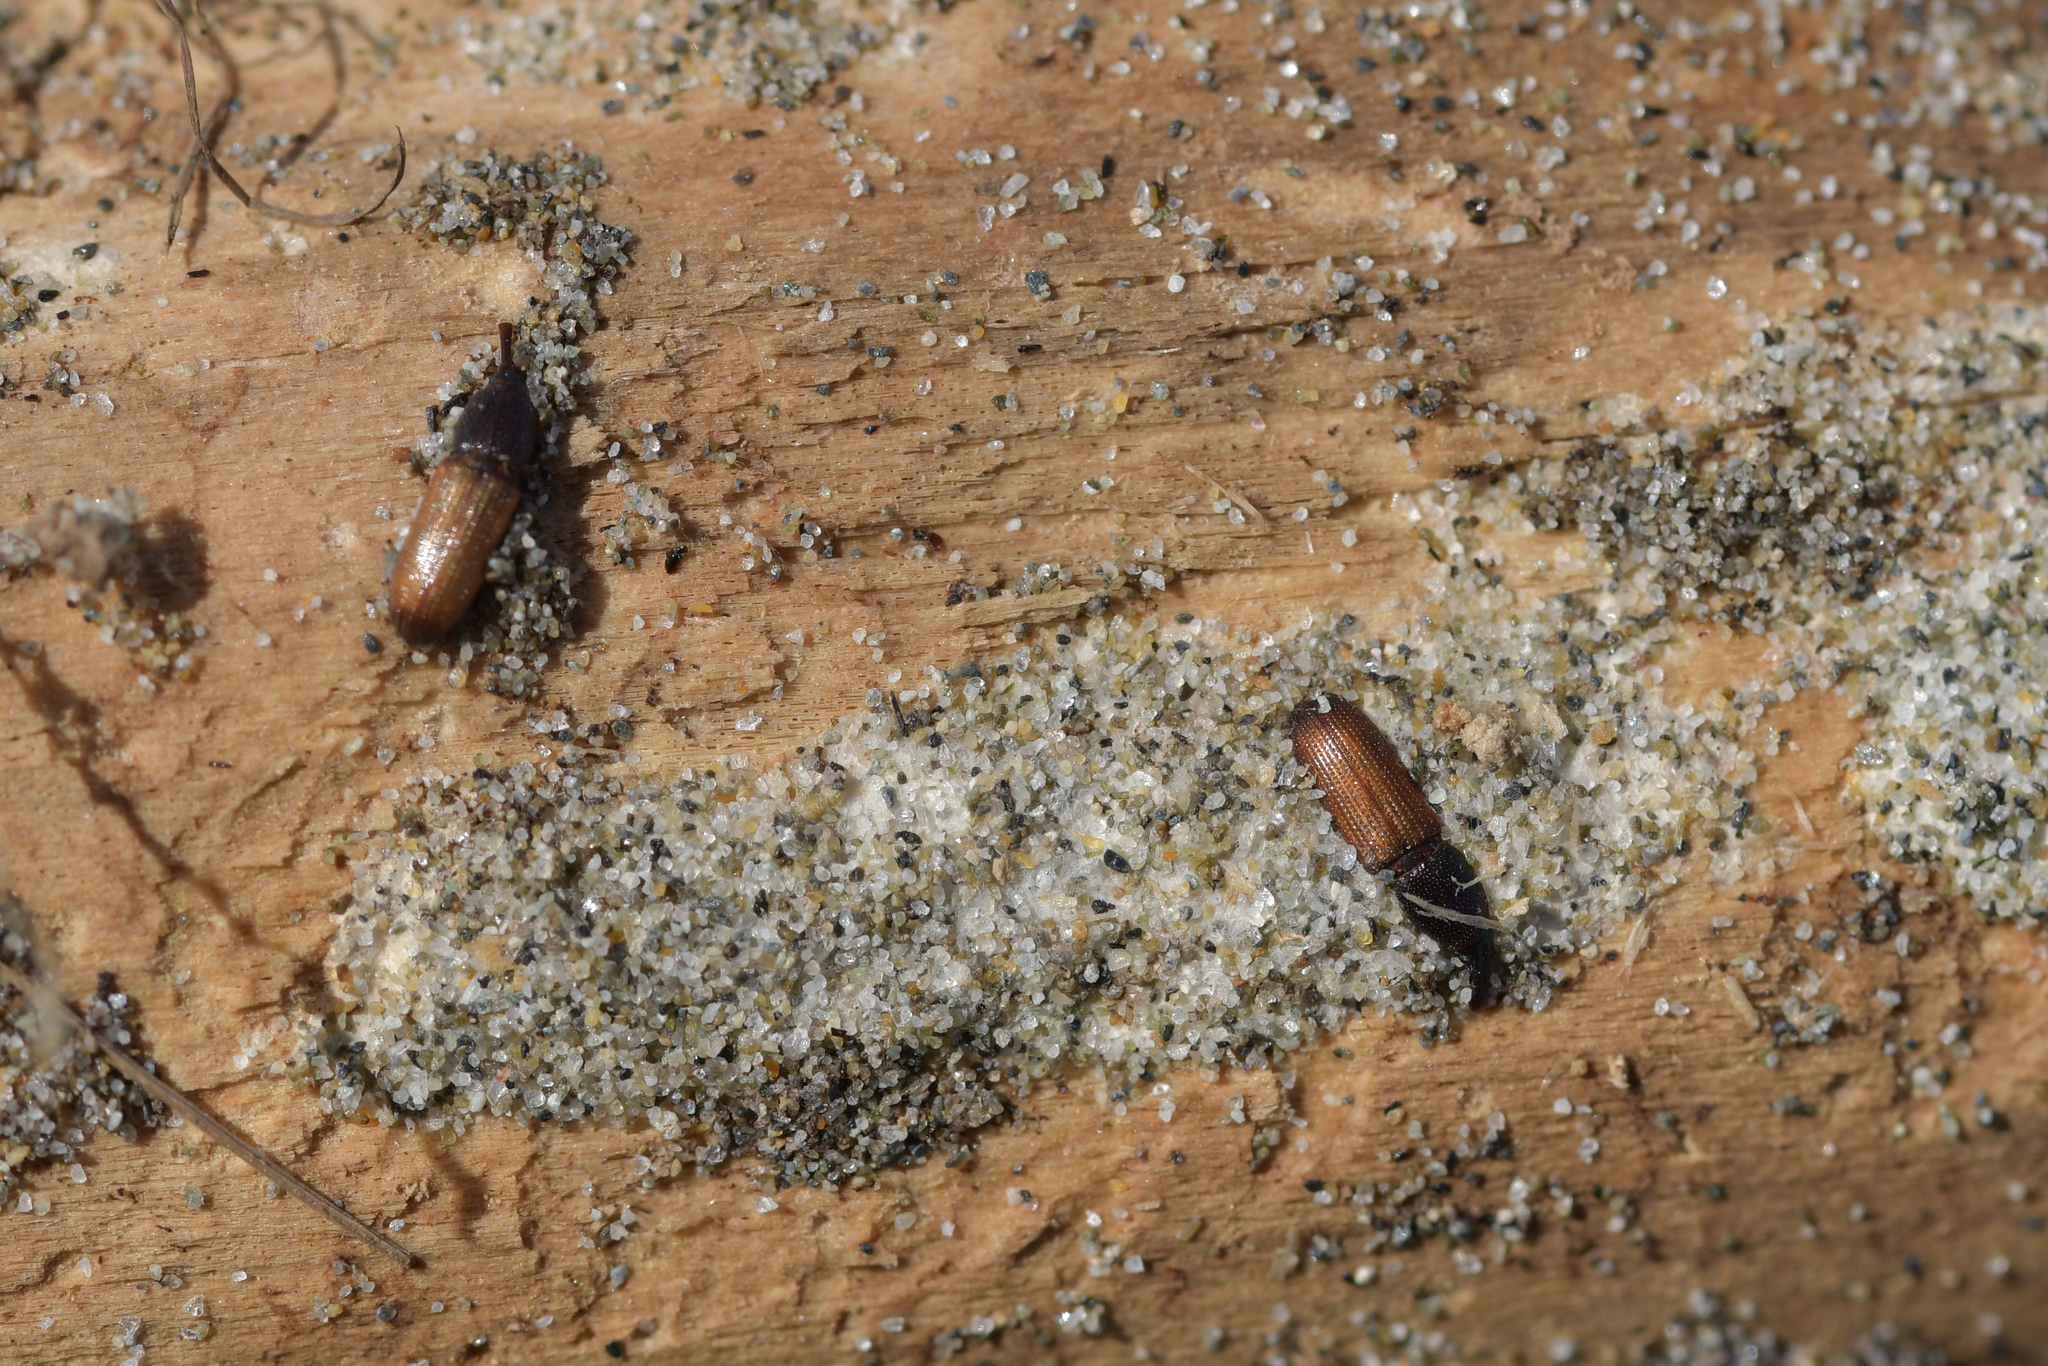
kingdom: Animalia
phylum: Arthropoda
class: Insecta
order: Coleoptera
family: Curculionidae
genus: Mesites
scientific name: Mesites pallidipennis
